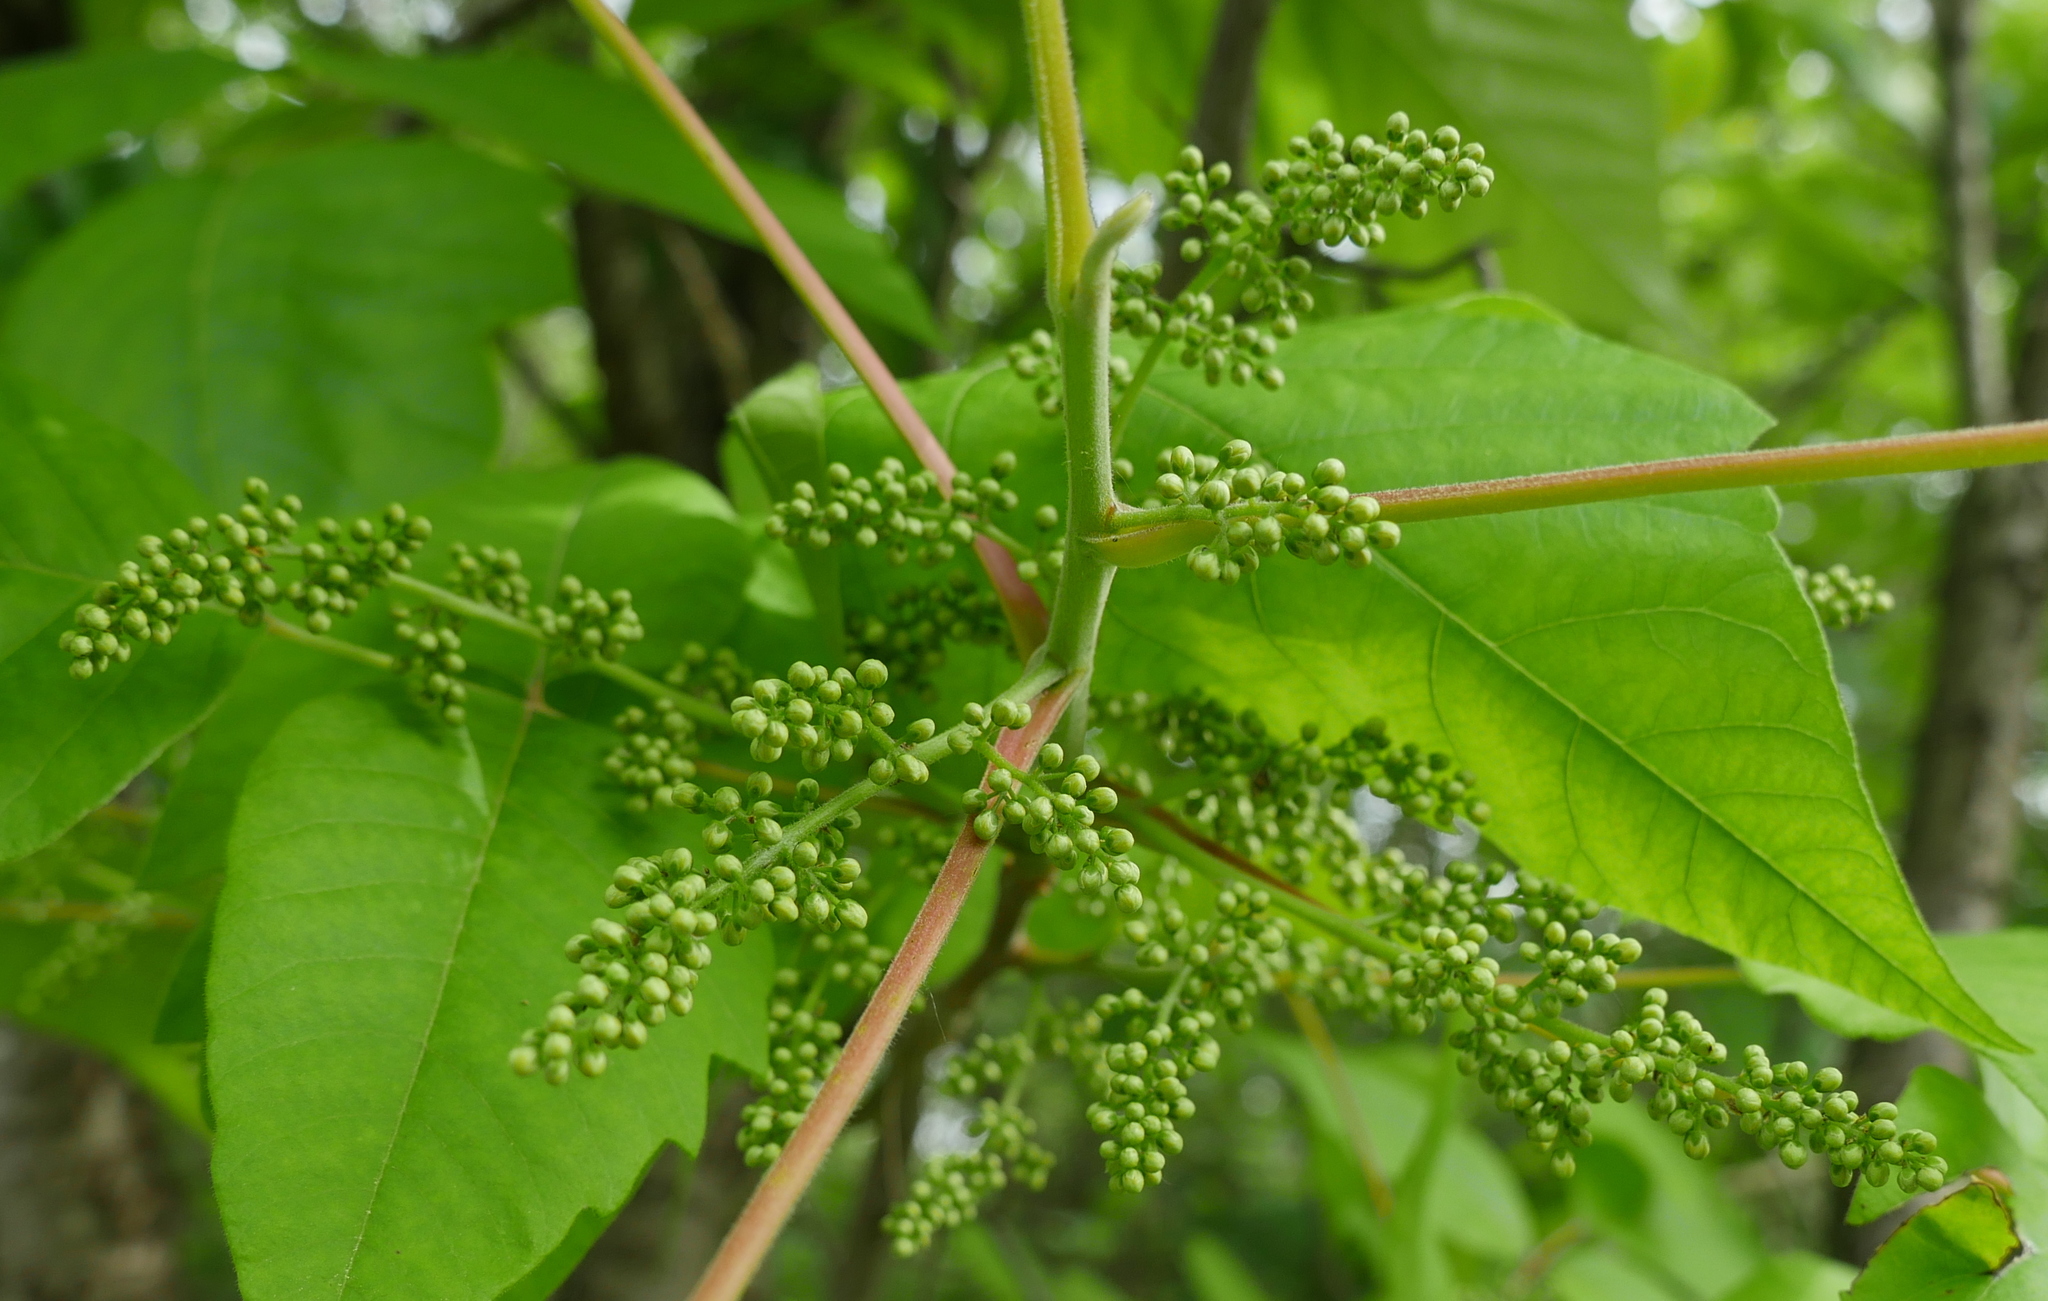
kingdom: Plantae
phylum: Tracheophyta
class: Magnoliopsida
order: Sapindales
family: Anacardiaceae
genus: Toxicodendron
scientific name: Toxicodendron radicans
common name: Poison ivy
